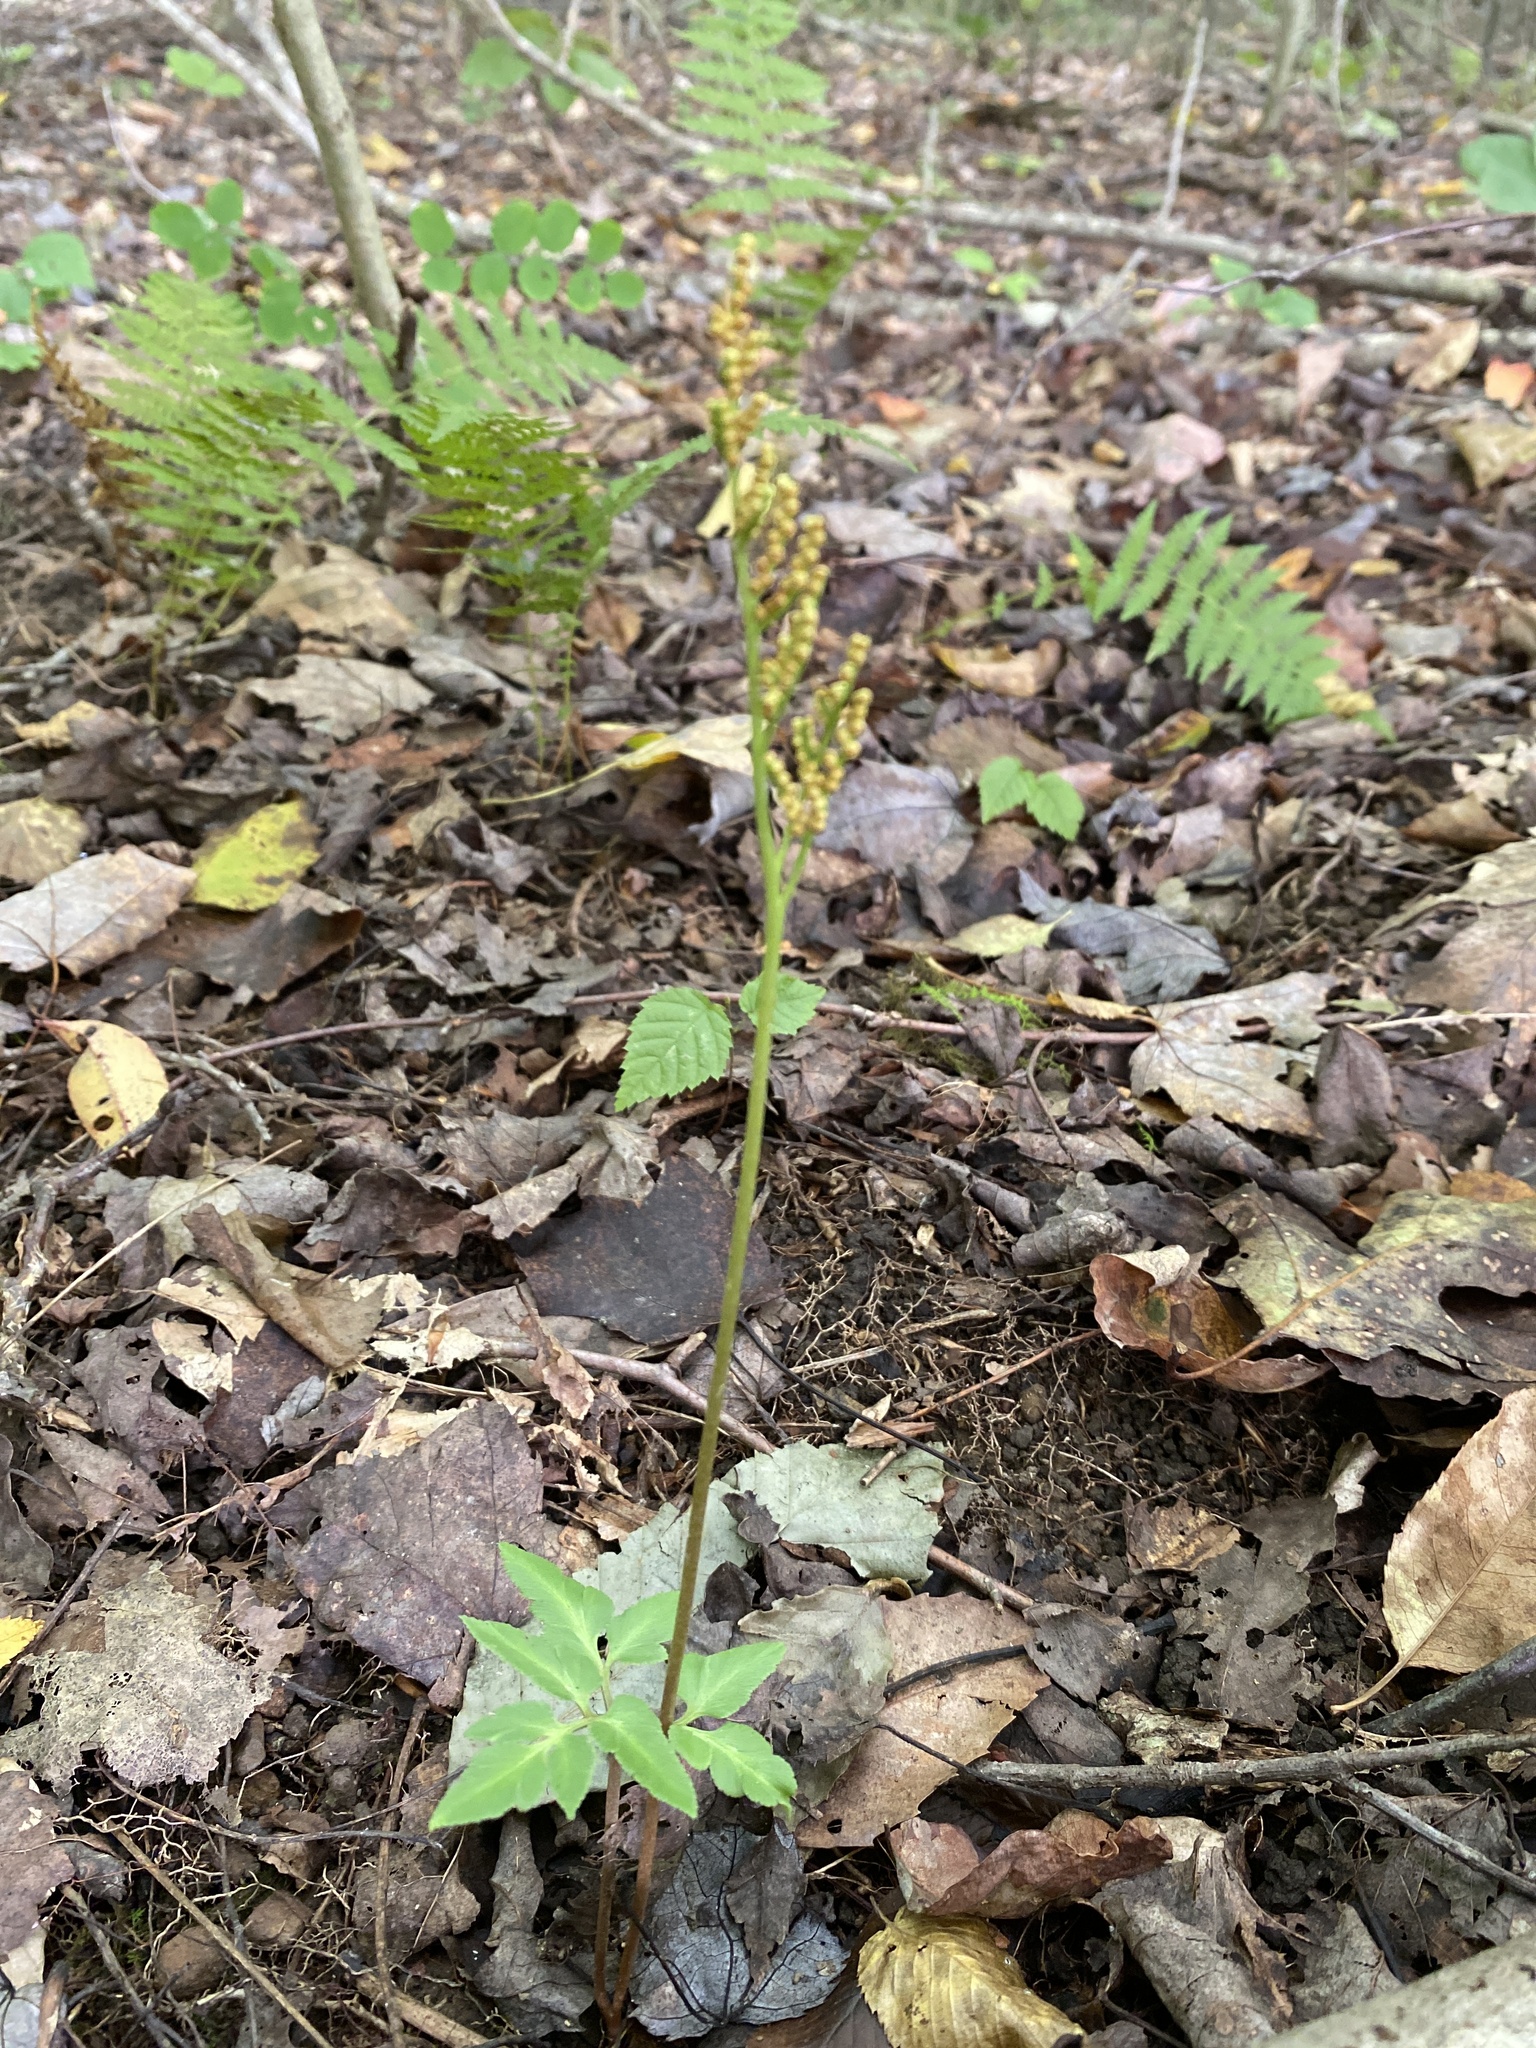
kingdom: Plantae
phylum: Tracheophyta
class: Polypodiopsida
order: Ophioglossales
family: Ophioglossaceae
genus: Sceptridium
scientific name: Sceptridium dissectum
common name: Cut-leaved grapefern
